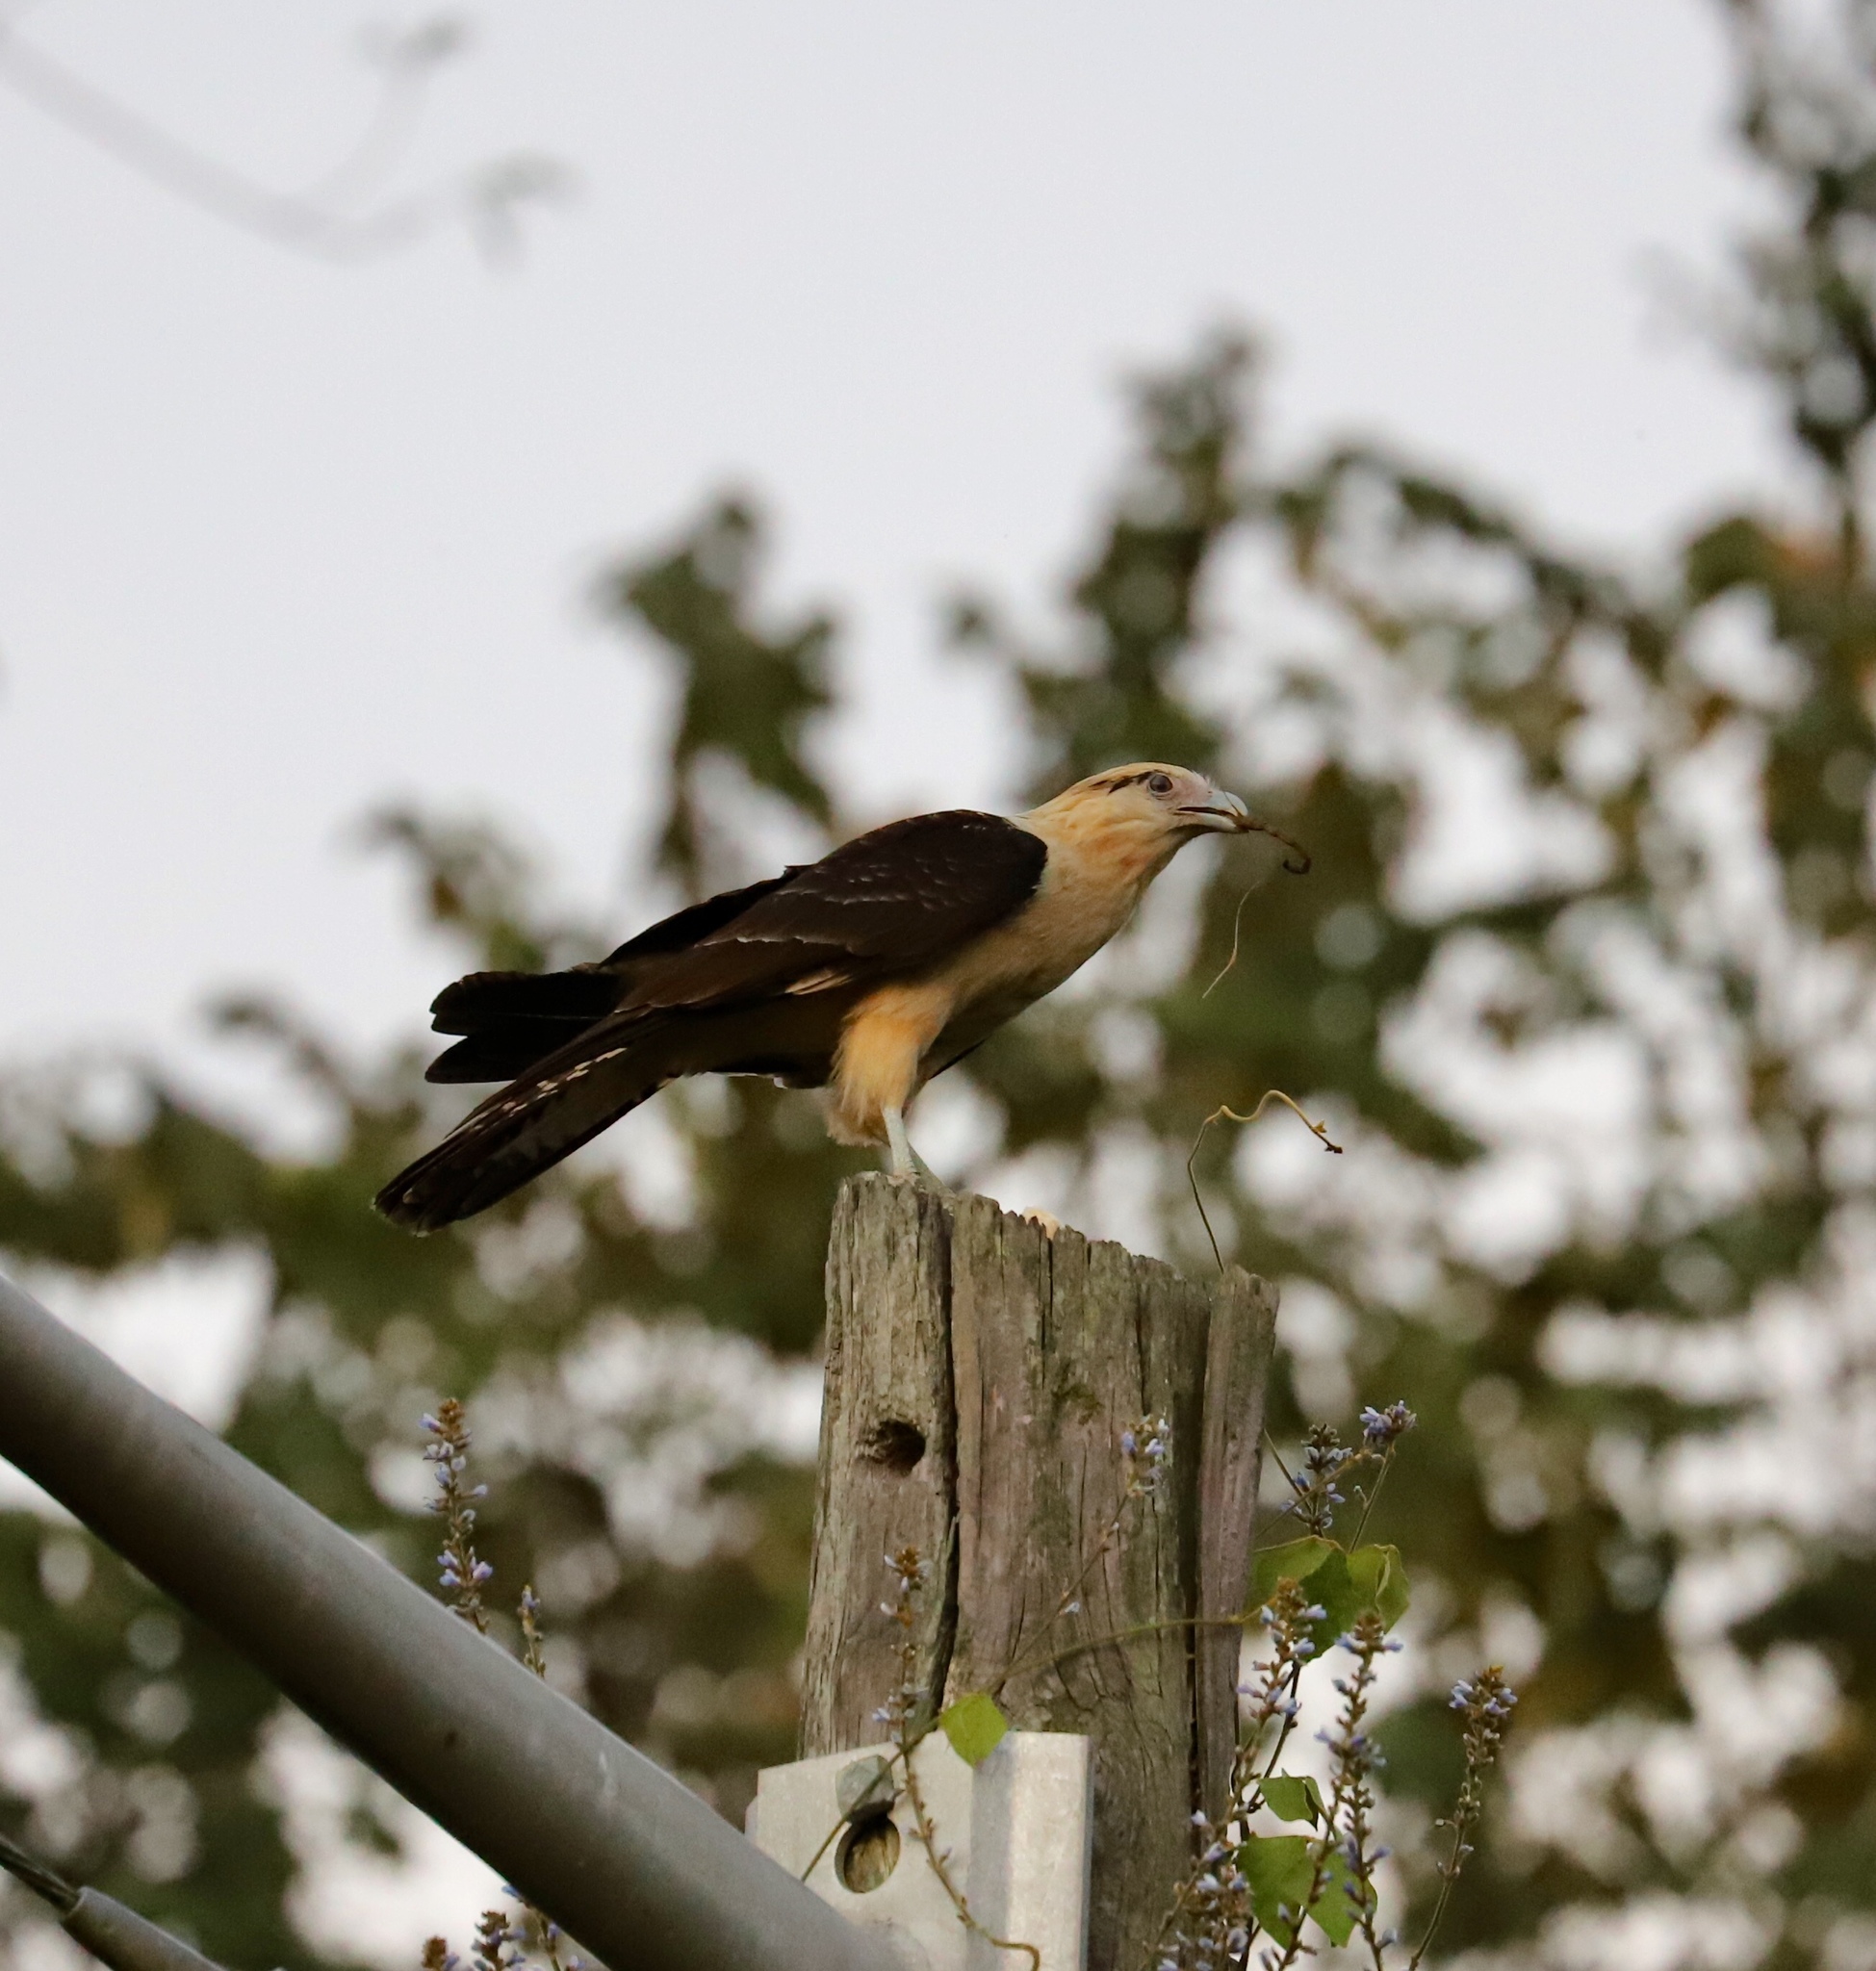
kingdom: Animalia
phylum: Chordata
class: Aves
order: Falconiformes
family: Falconidae
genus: Daptrius
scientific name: Daptrius
